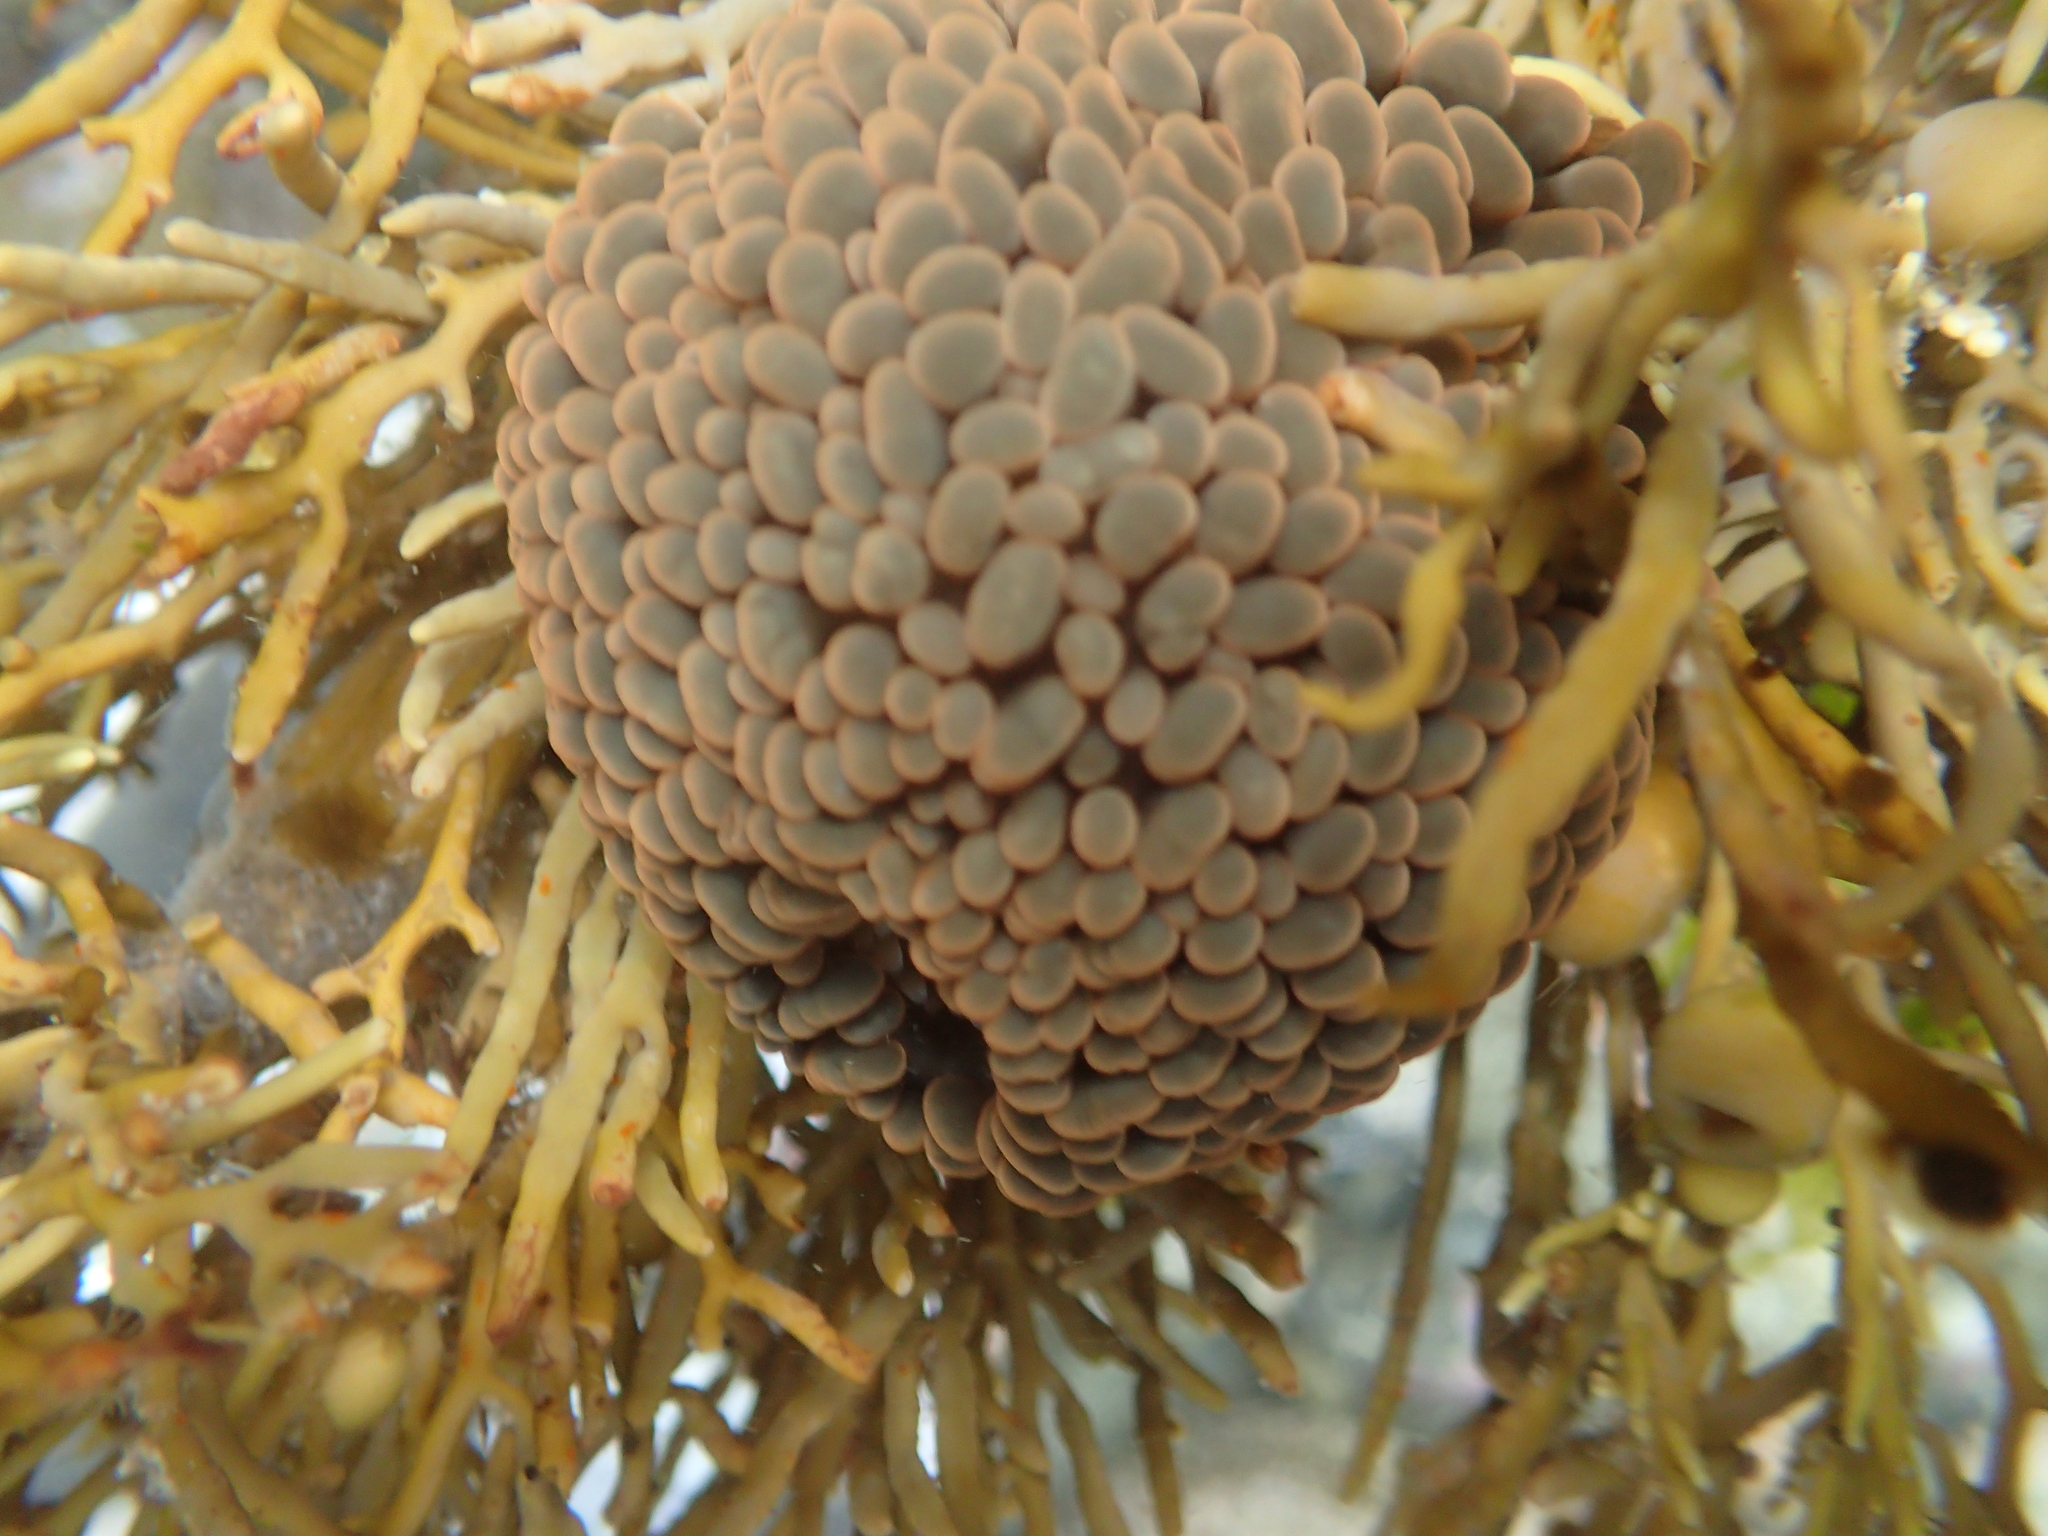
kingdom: Animalia
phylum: Cnidaria
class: Anthozoa
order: Actiniaria
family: Actiniidae
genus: Phlyctenactis
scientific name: Phlyctenactis tuberculosa
